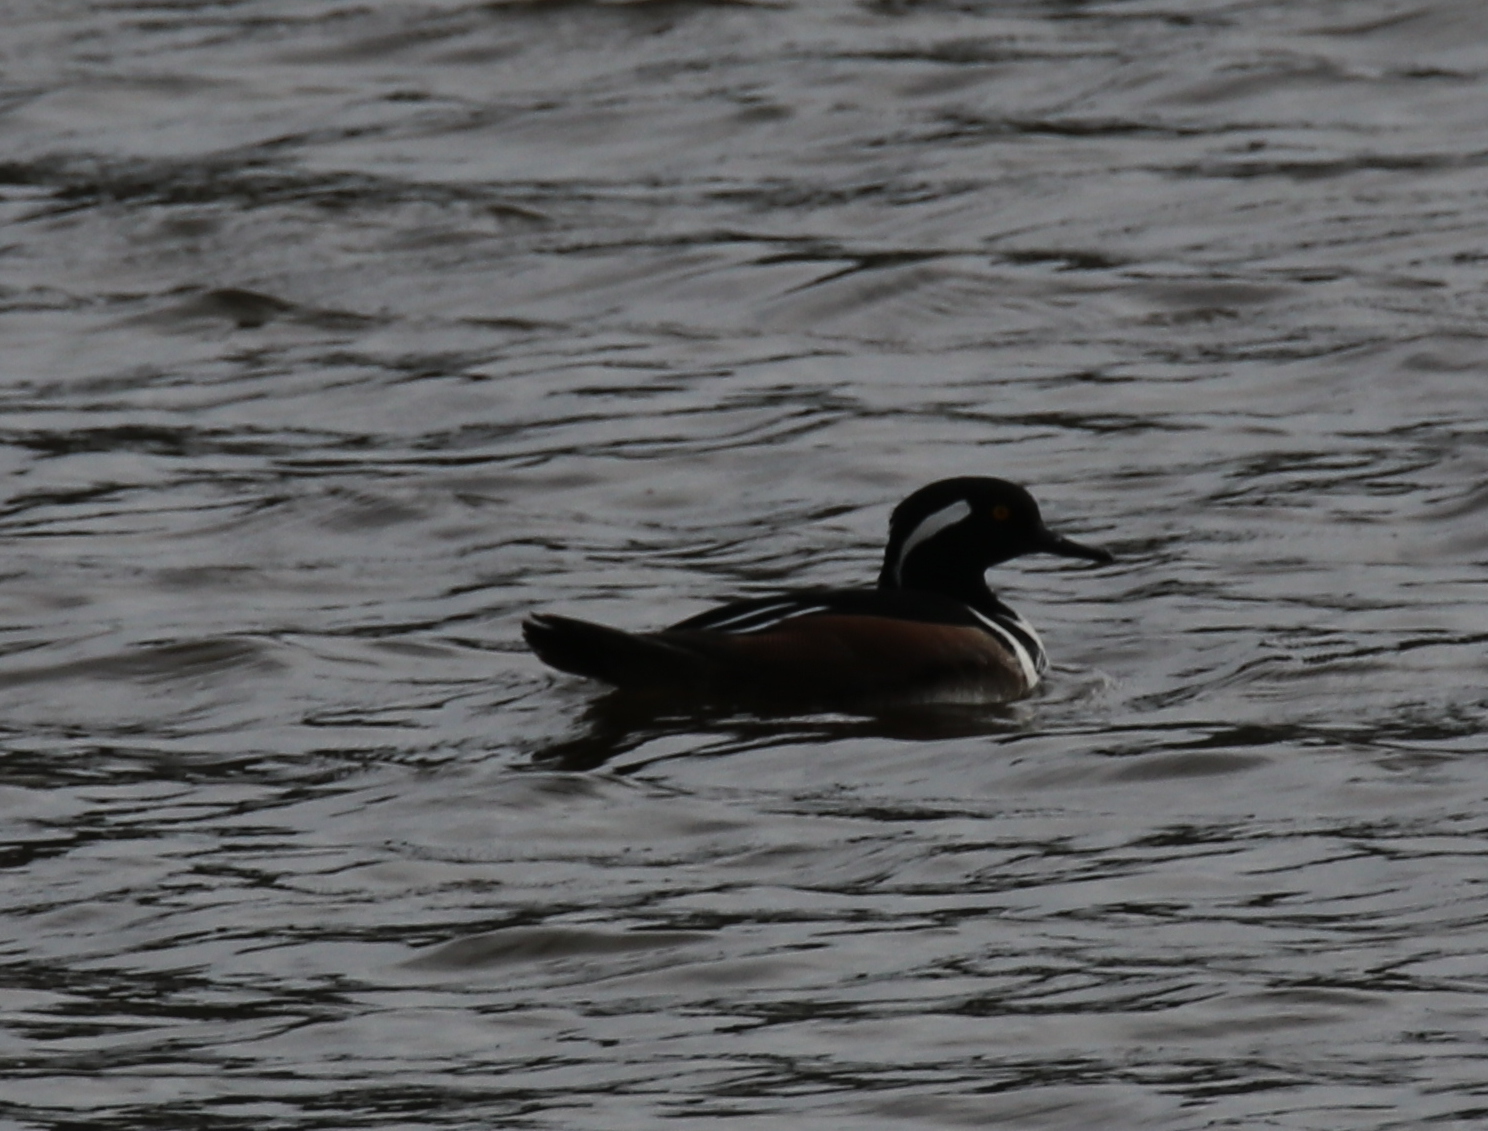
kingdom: Animalia
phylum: Chordata
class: Aves
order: Anseriformes
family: Anatidae
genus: Lophodytes
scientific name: Lophodytes cucullatus
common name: Hooded merganser
